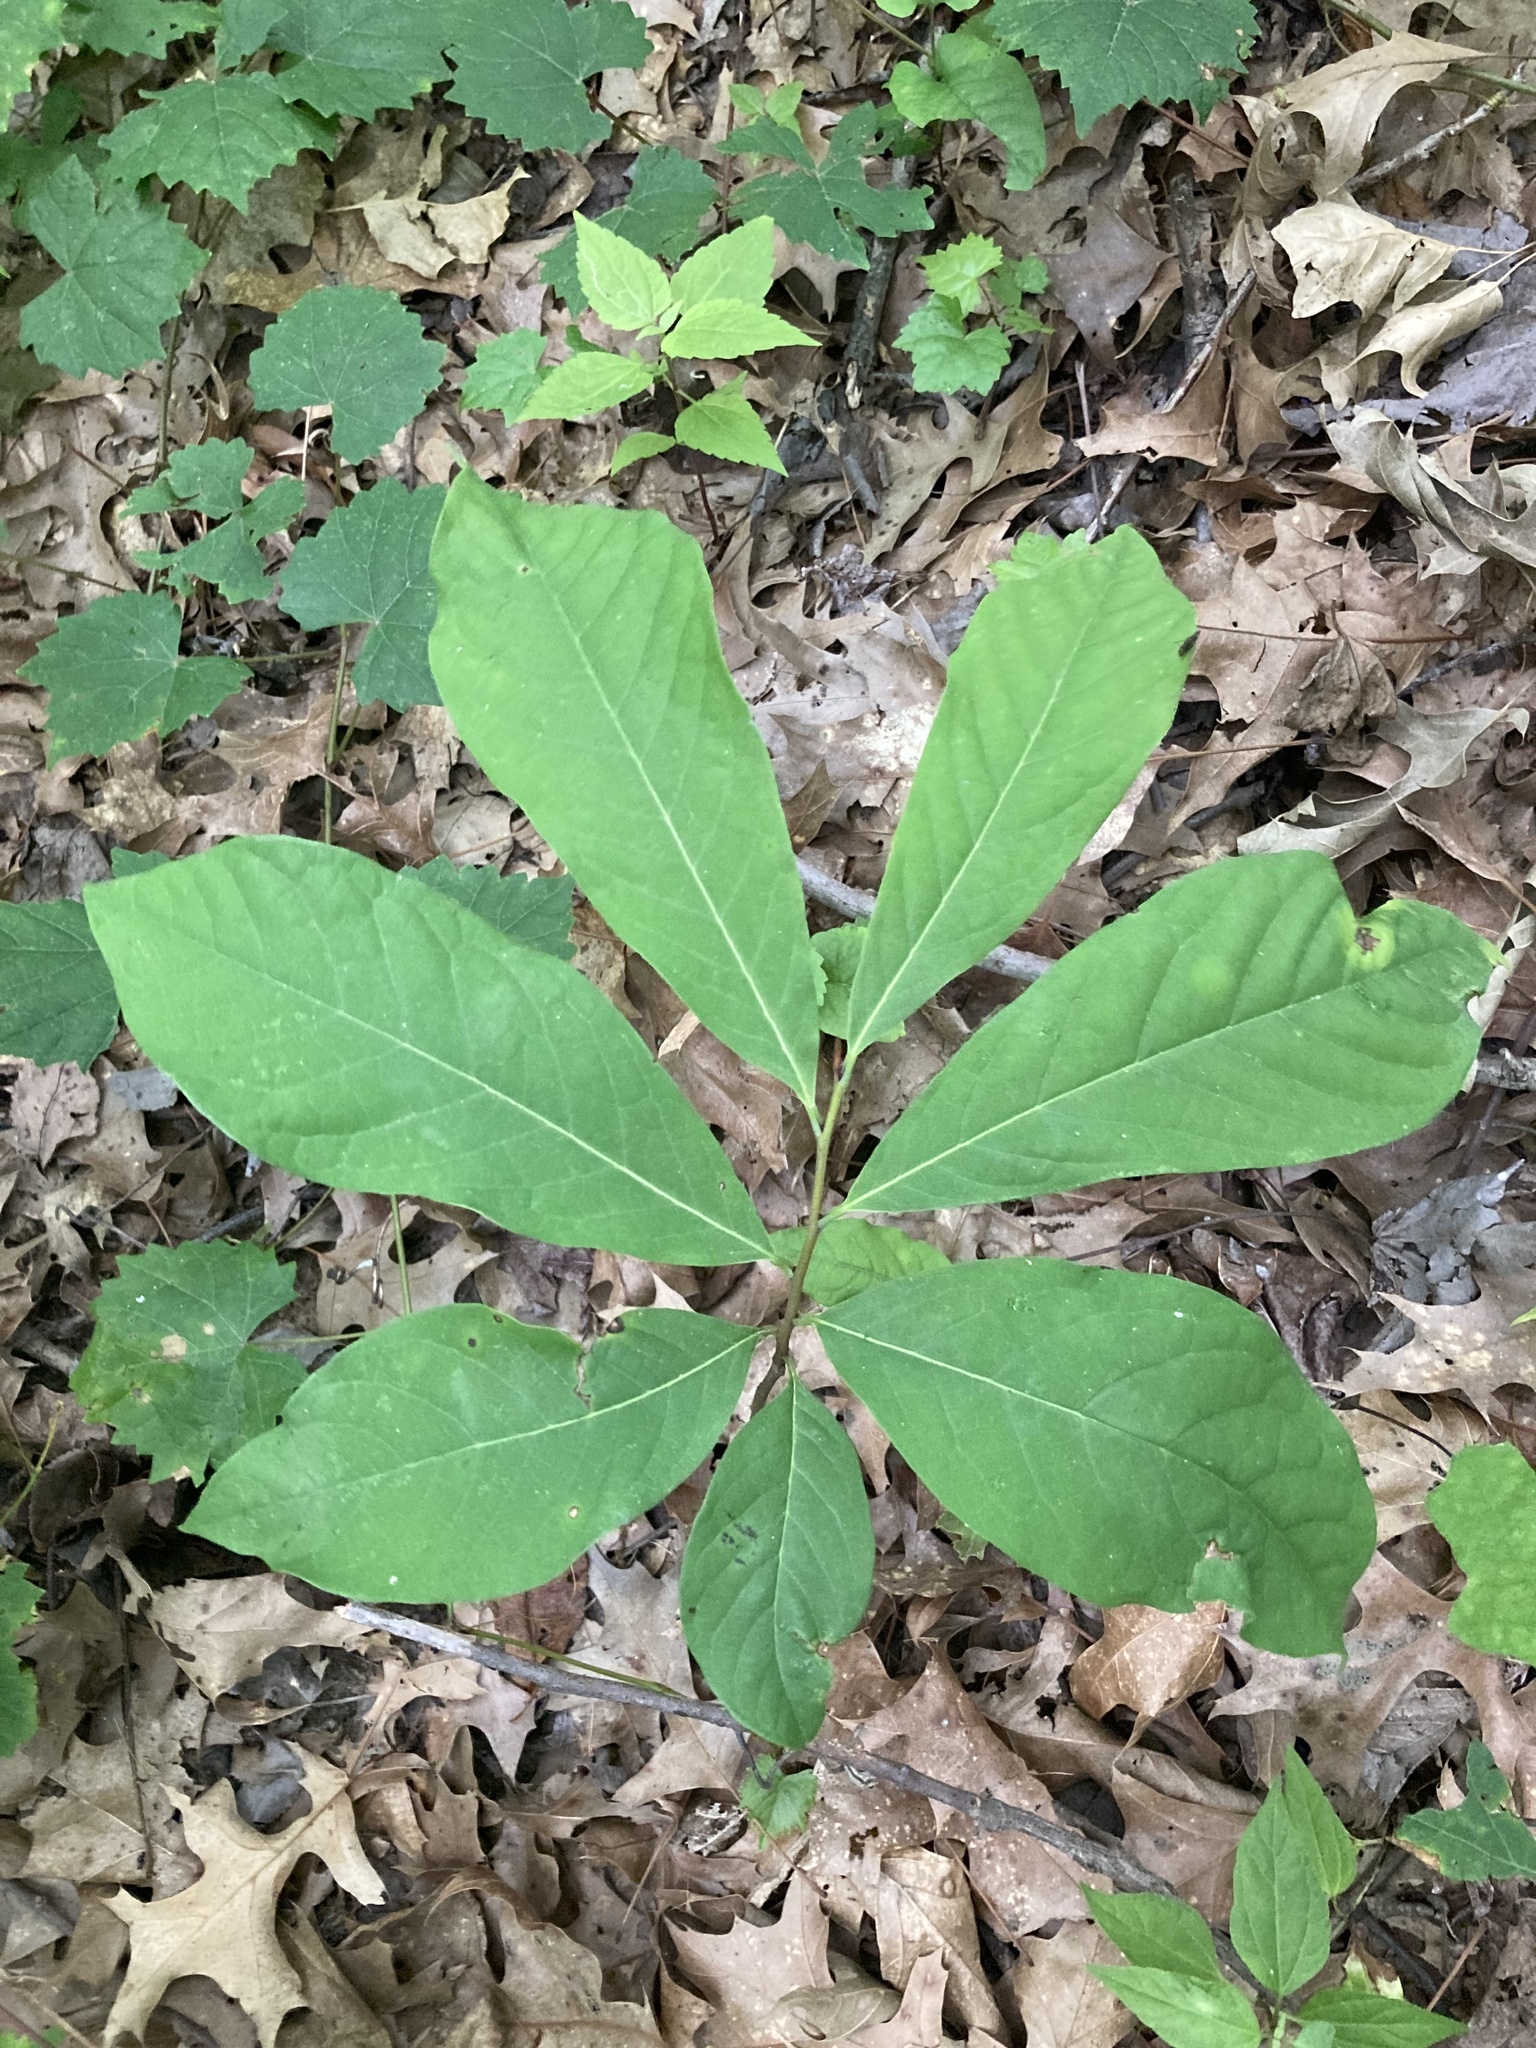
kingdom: Plantae
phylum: Tracheophyta
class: Magnoliopsida
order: Magnoliales
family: Annonaceae
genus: Asimina
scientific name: Asimina triloba
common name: Dog-banana
